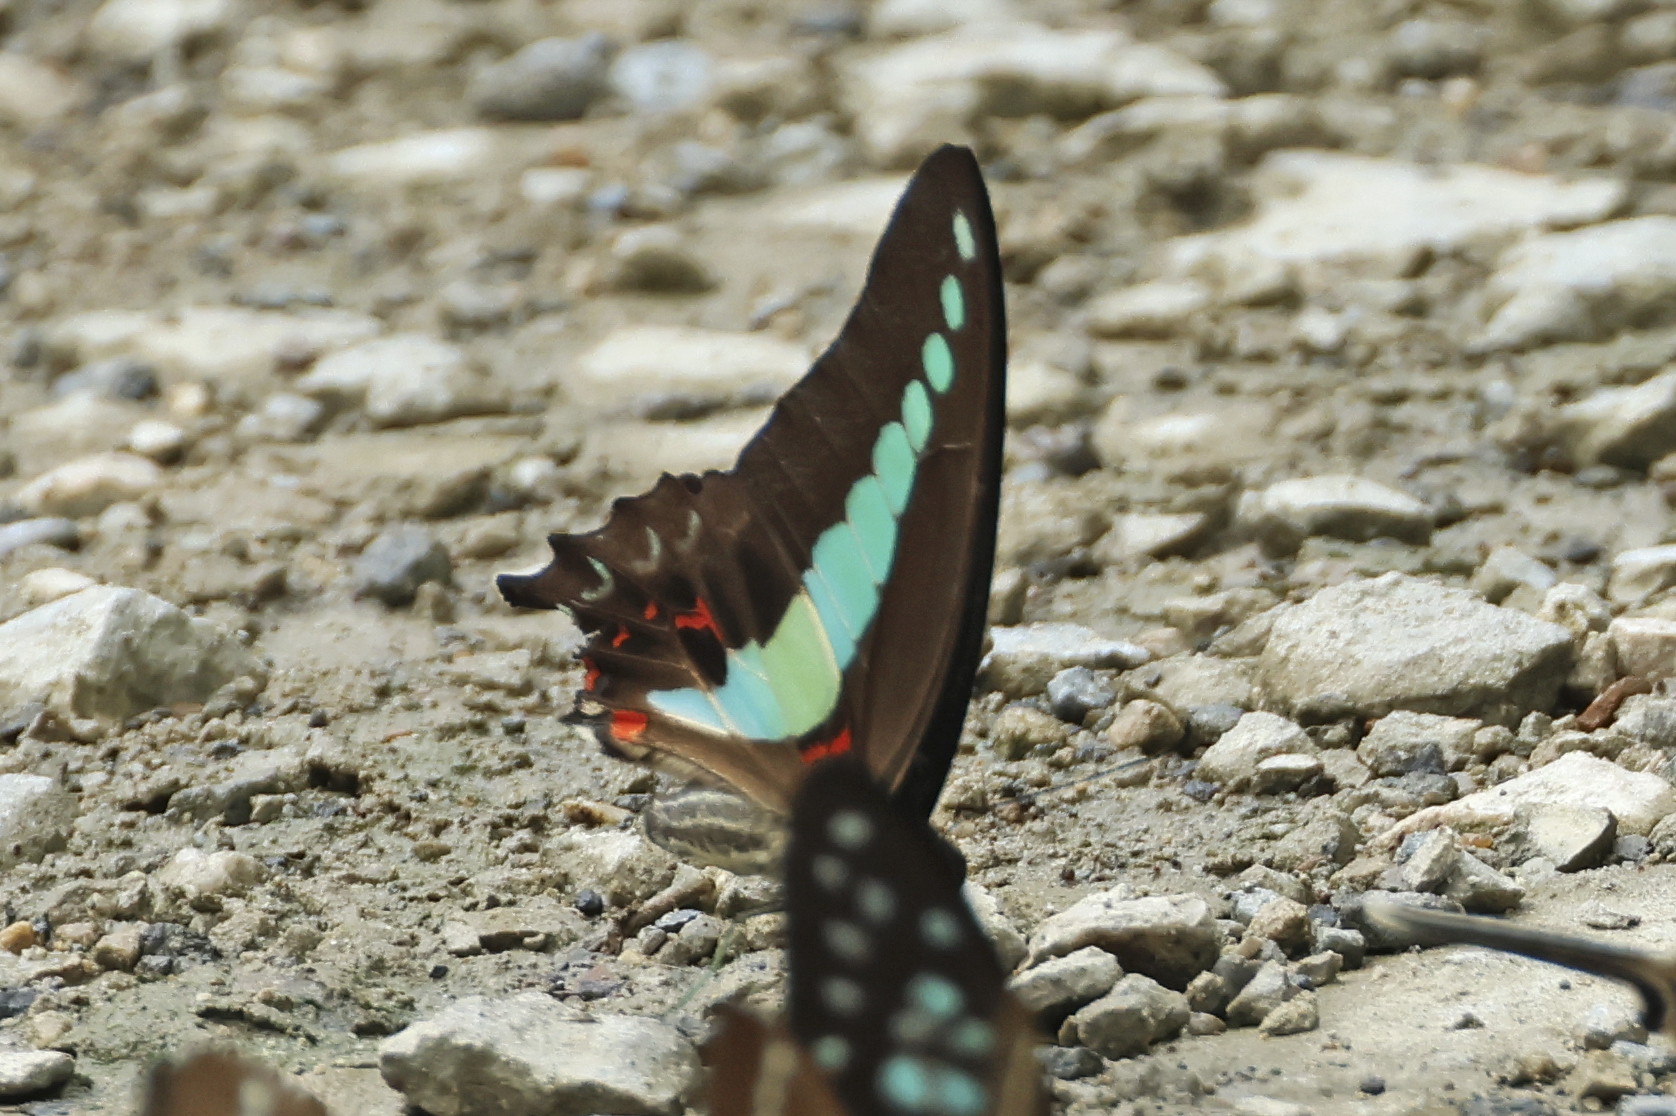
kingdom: Fungi
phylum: Ascomycota
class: Sordariomycetes
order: Microascales
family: Microascaceae
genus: Graphium
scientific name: Graphium sarpedon
